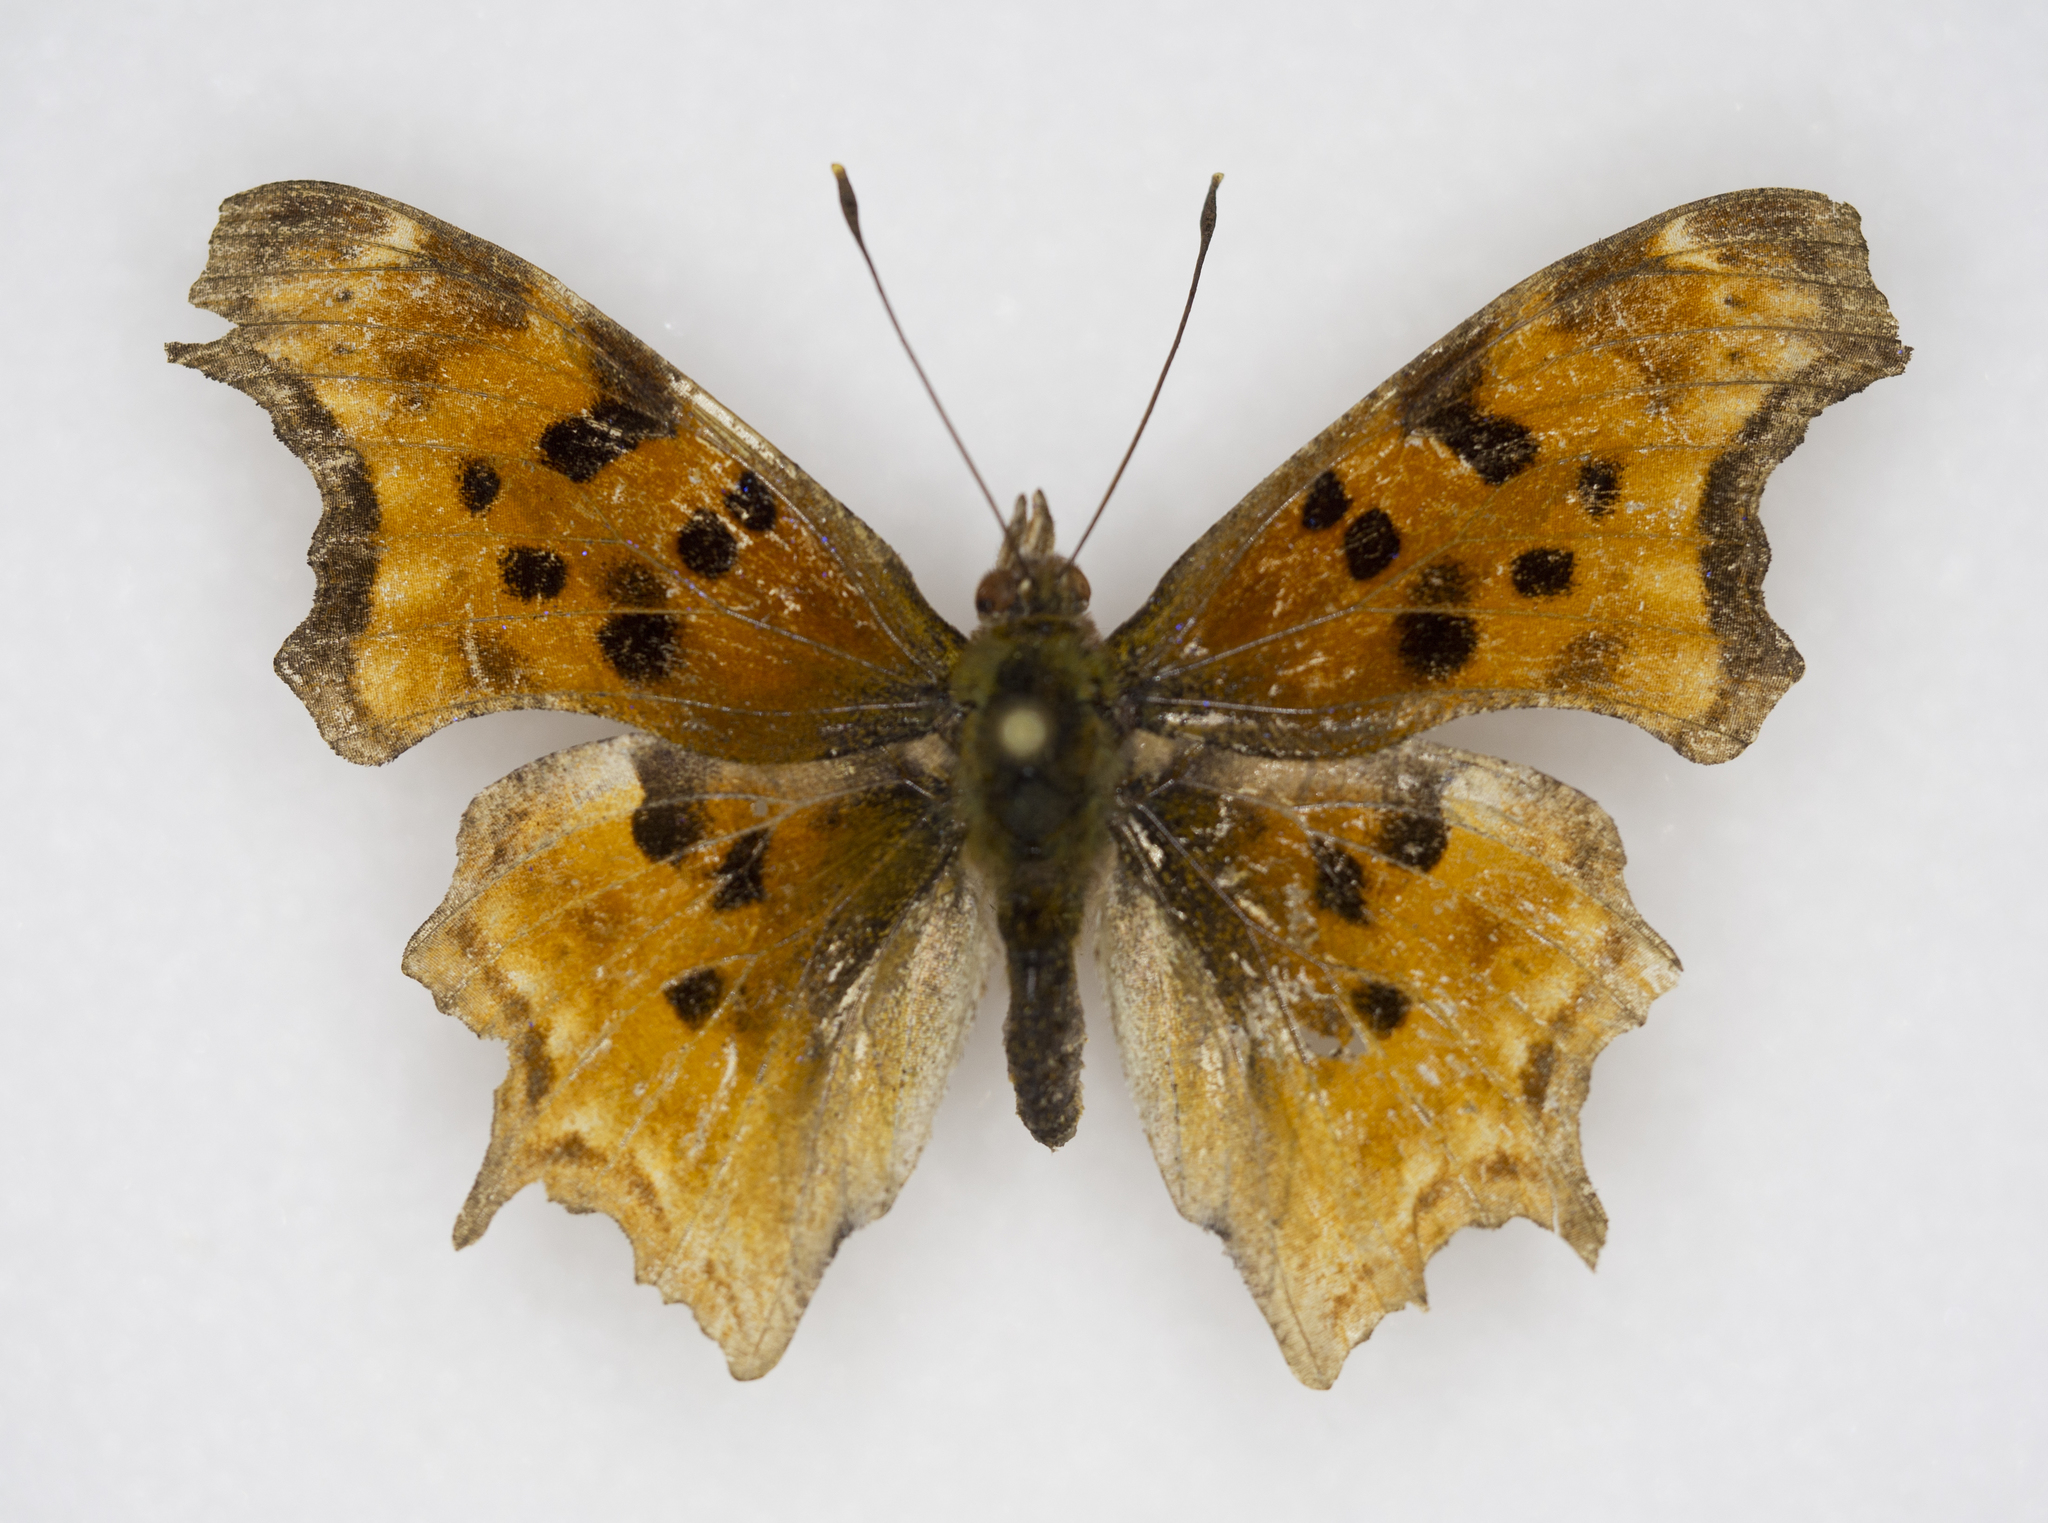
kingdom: Animalia
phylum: Arthropoda
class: Insecta
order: Lepidoptera
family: Nymphalidae
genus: Polygonia
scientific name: Polygonia satyrus
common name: Satyr angle wing
